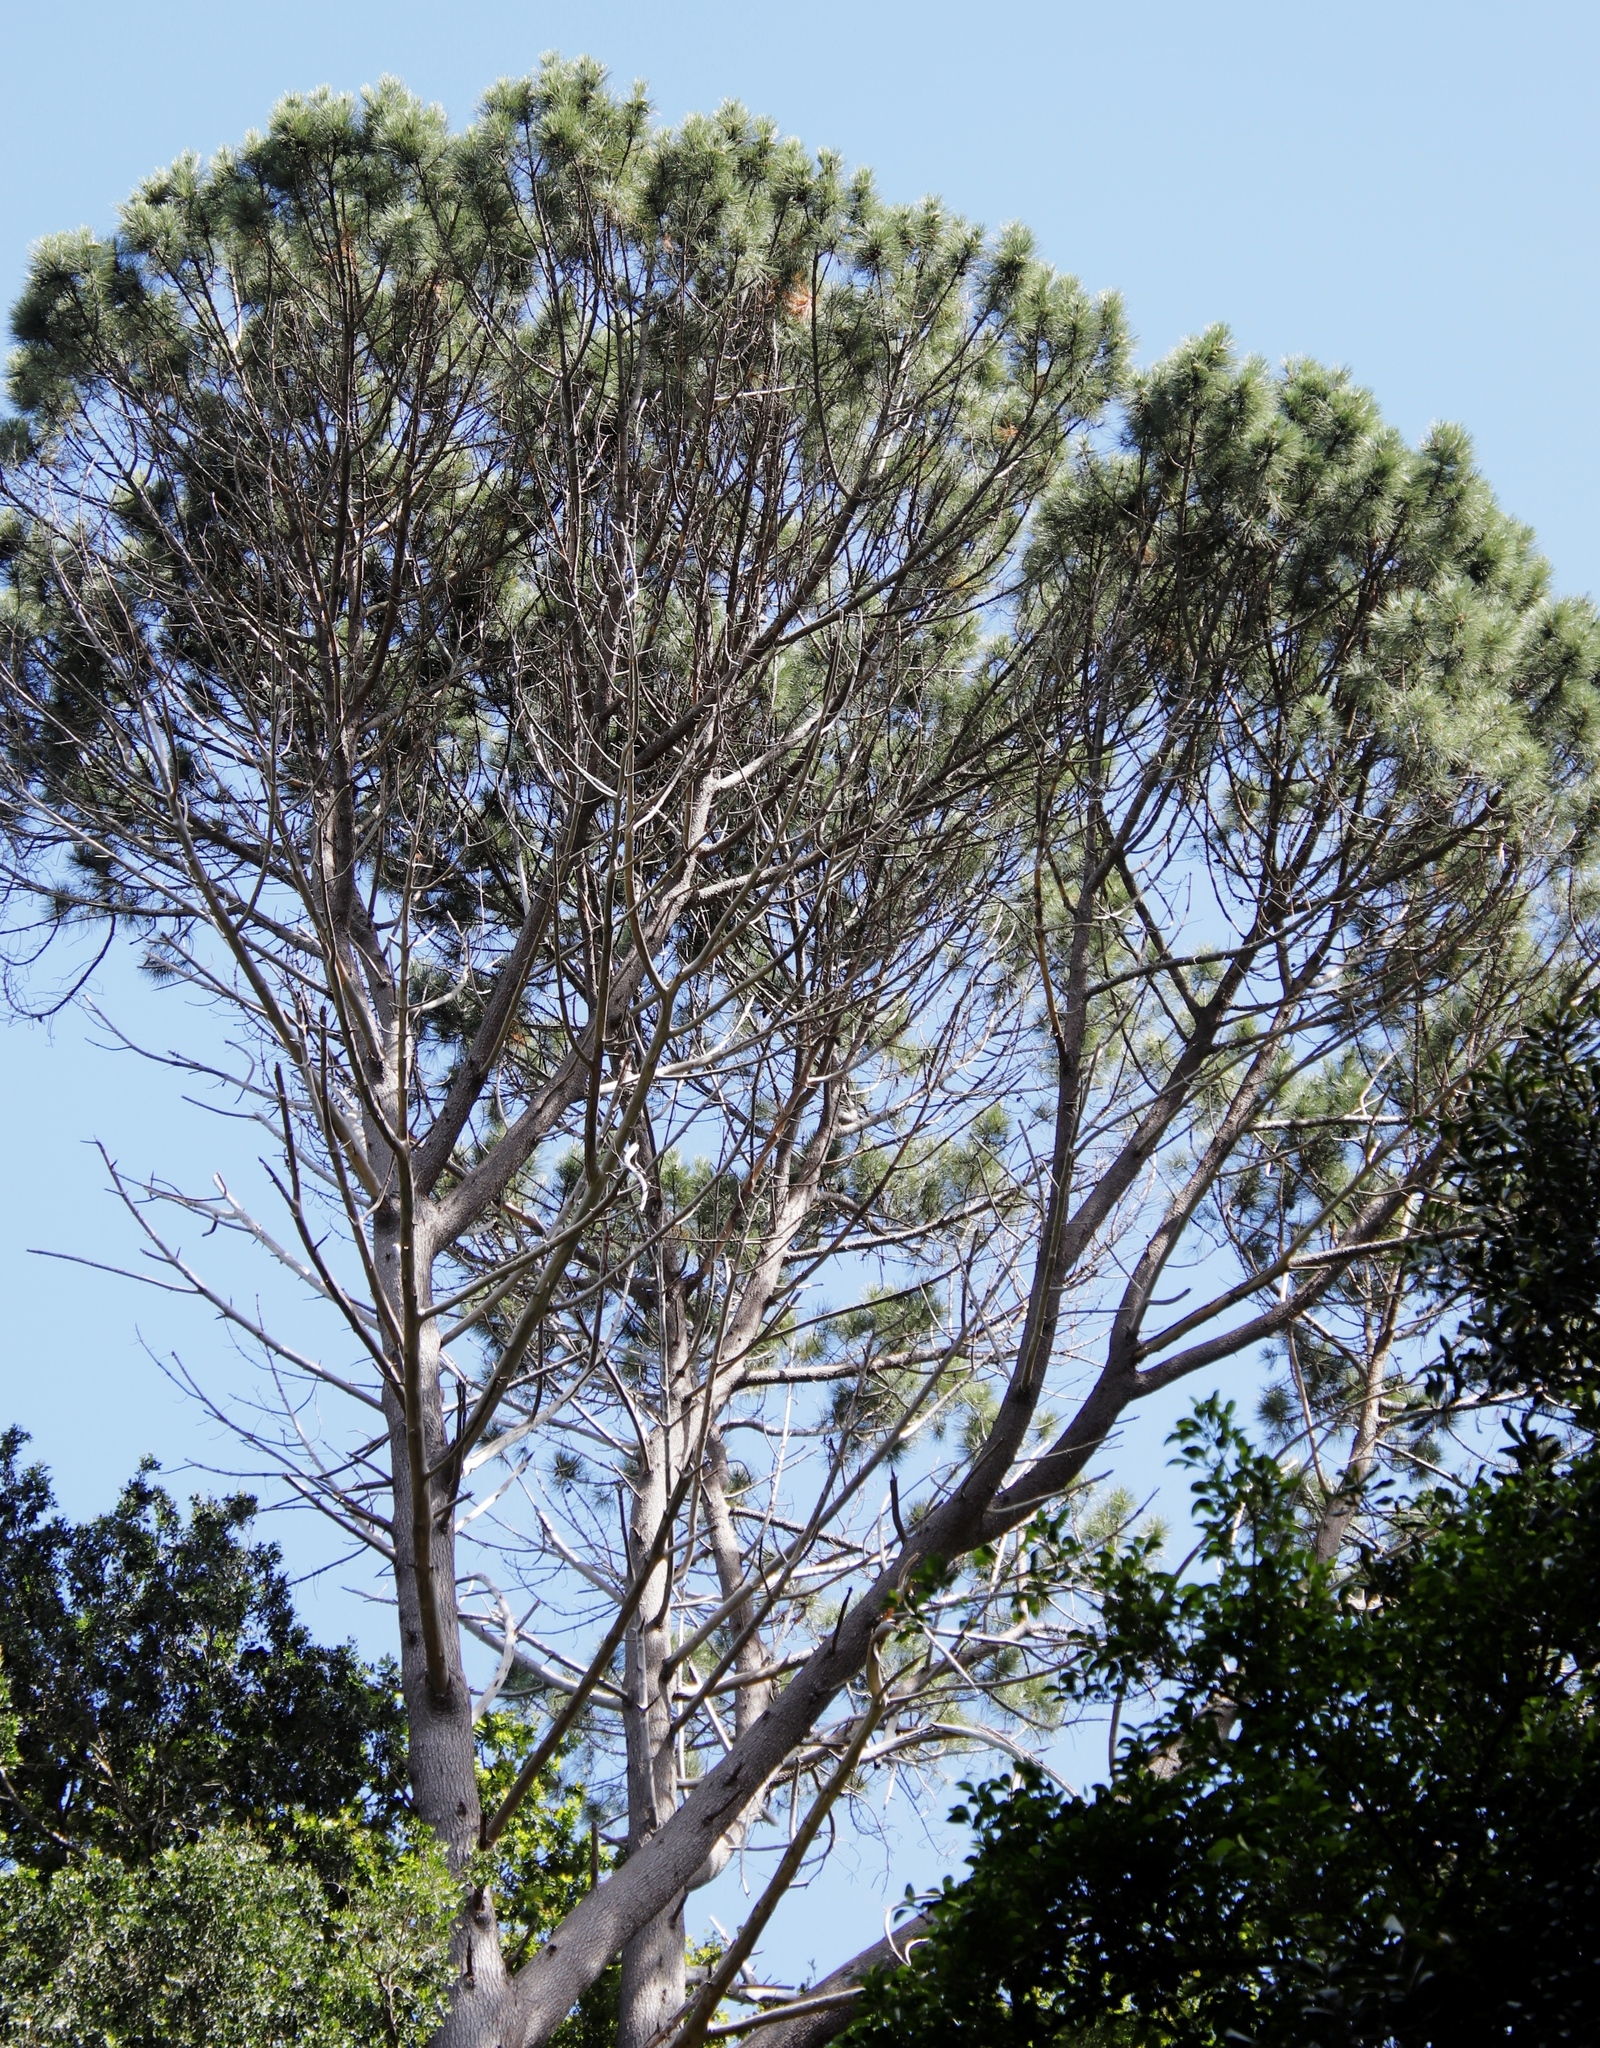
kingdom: Plantae
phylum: Tracheophyta
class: Pinopsida
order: Pinales
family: Pinaceae
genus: Pinus
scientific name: Pinus pinea
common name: Italian stone pine
